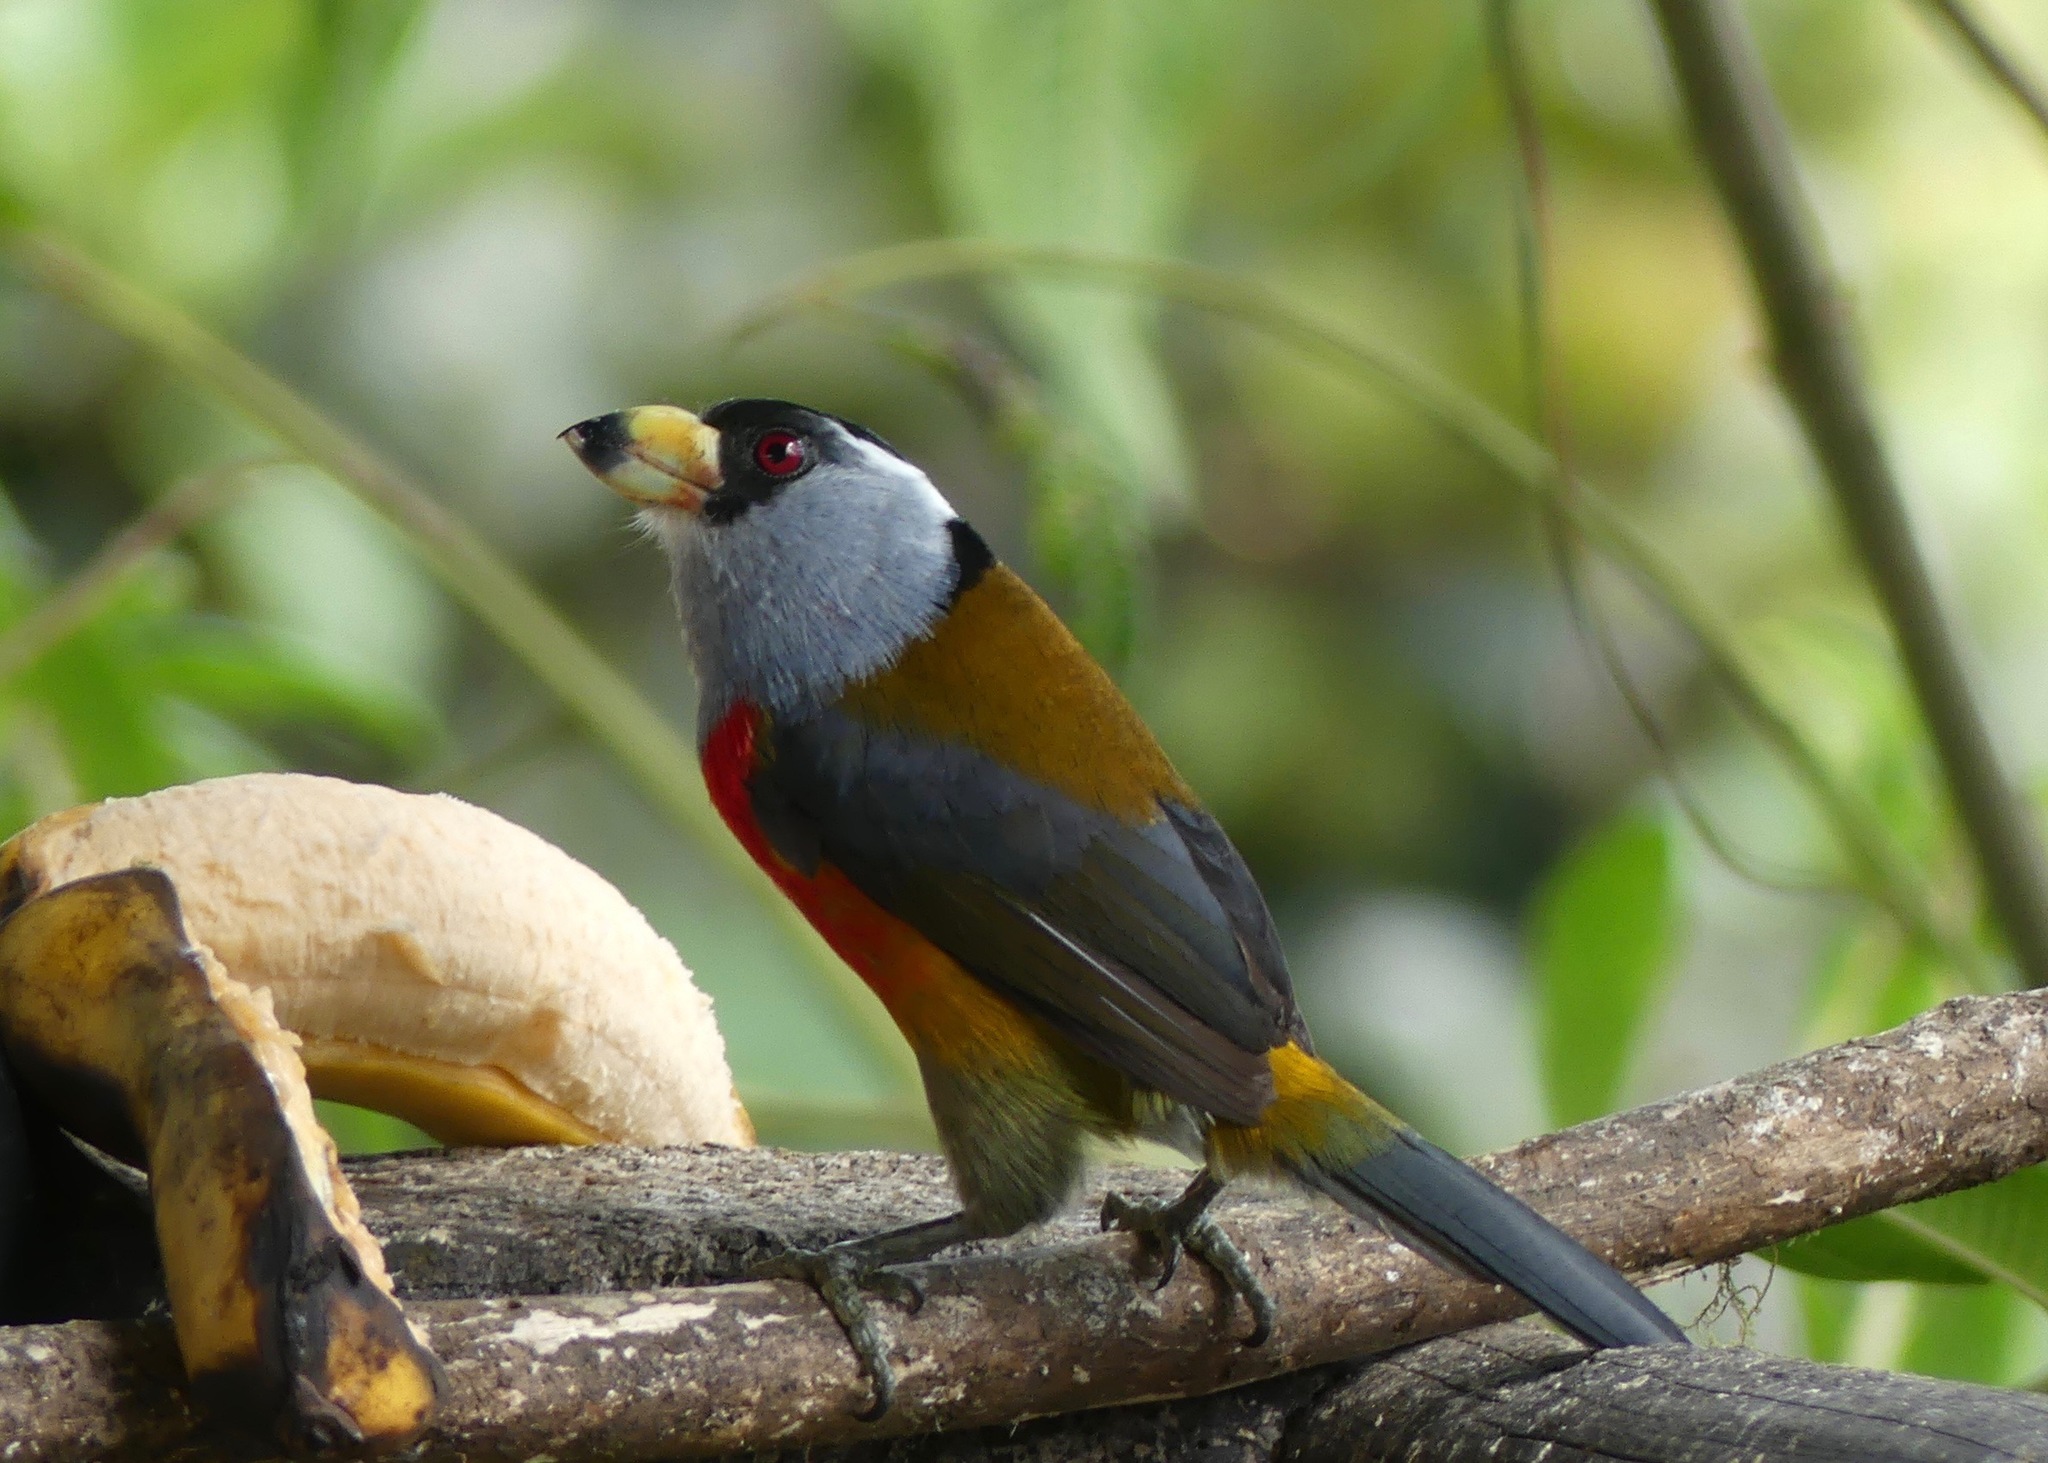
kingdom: Animalia
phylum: Chordata
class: Aves
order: Piciformes
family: Semnornithidae
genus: Semnornis
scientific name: Semnornis ramphastinus
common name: Toucan barbet
